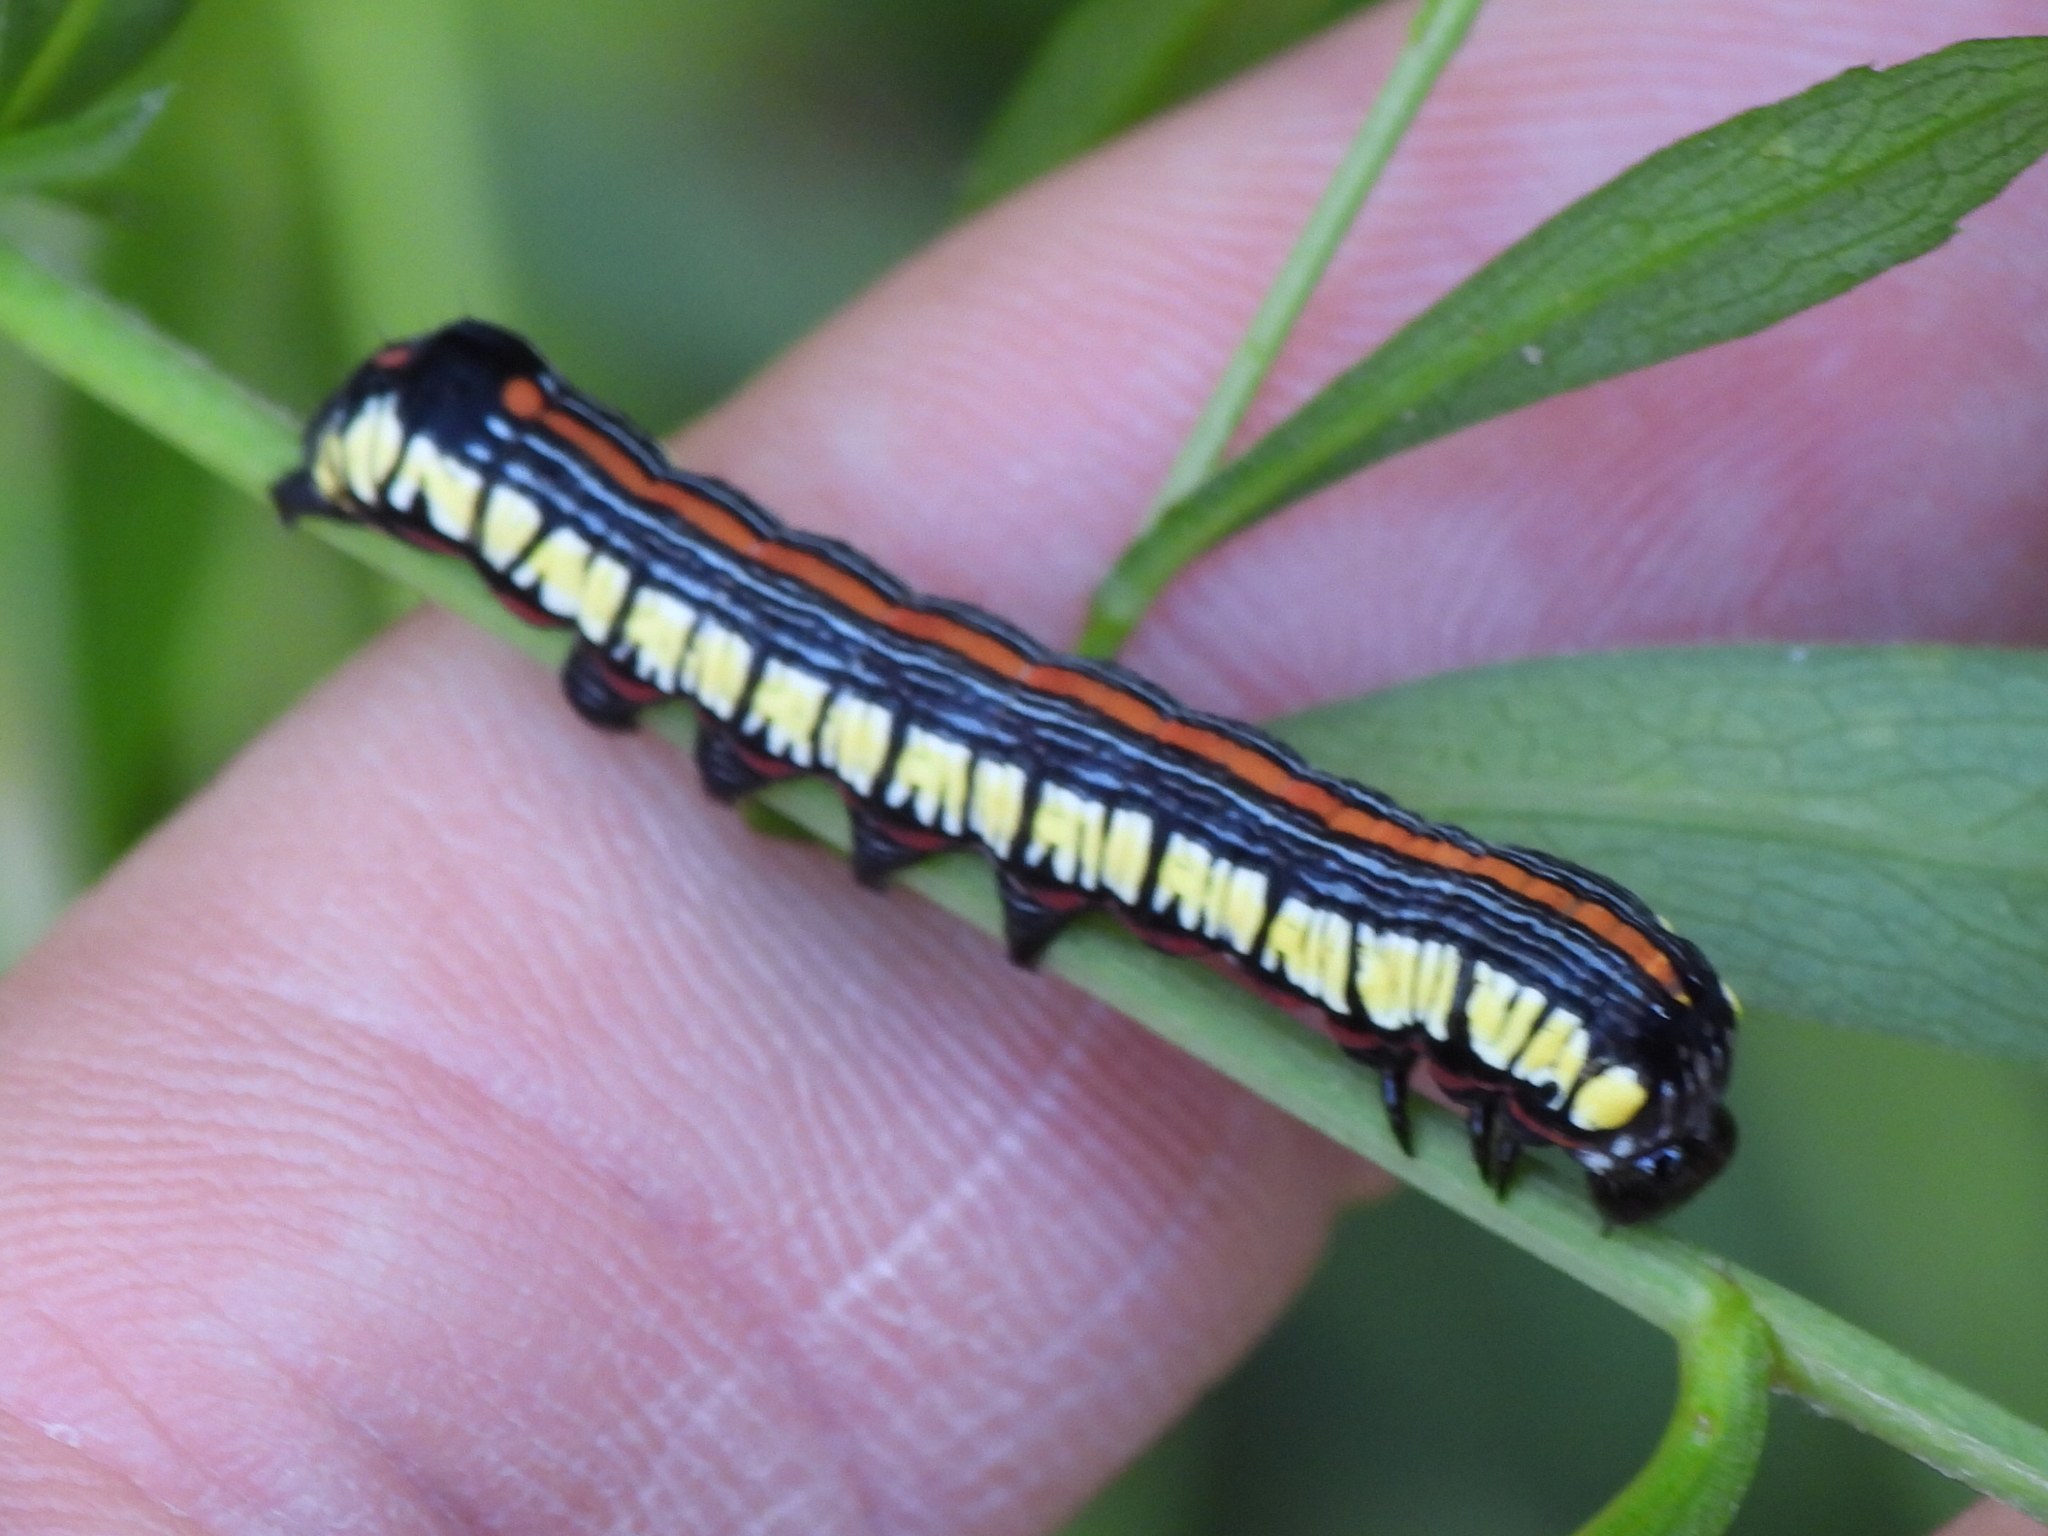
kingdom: Animalia
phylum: Arthropoda
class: Insecta
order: Lepidoptera
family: Noctuidae
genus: Cucullia
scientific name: Cucullia convexipennis
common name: Brown-hooded owlet
